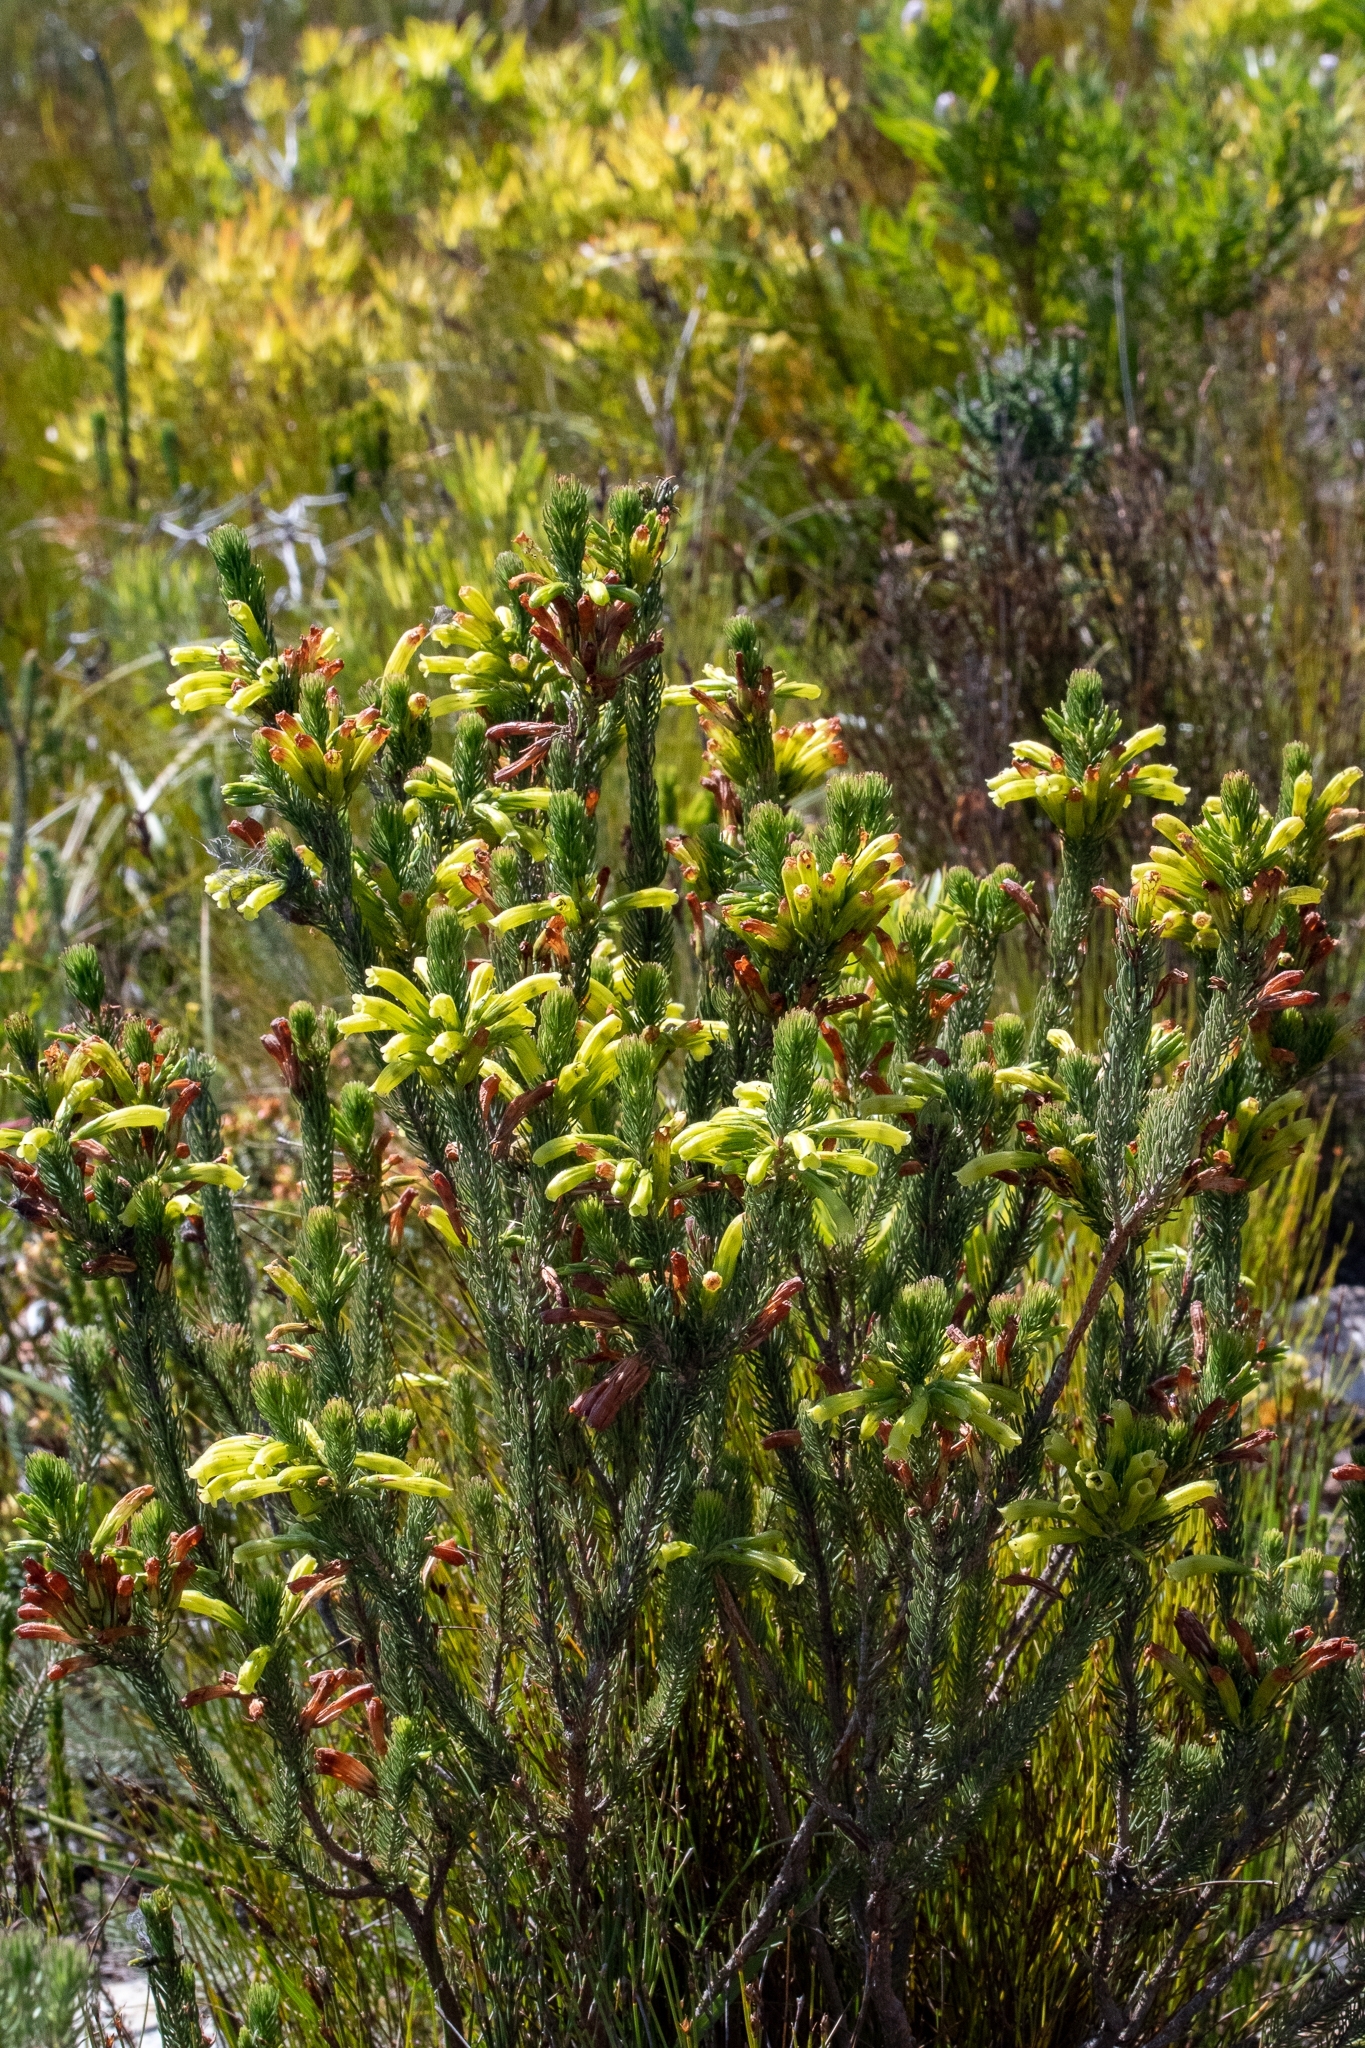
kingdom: Plantae
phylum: Tracheophyta
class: Magnoliopsida
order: Ericales
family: Ericaceae
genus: Erica
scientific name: Erica viscaria
